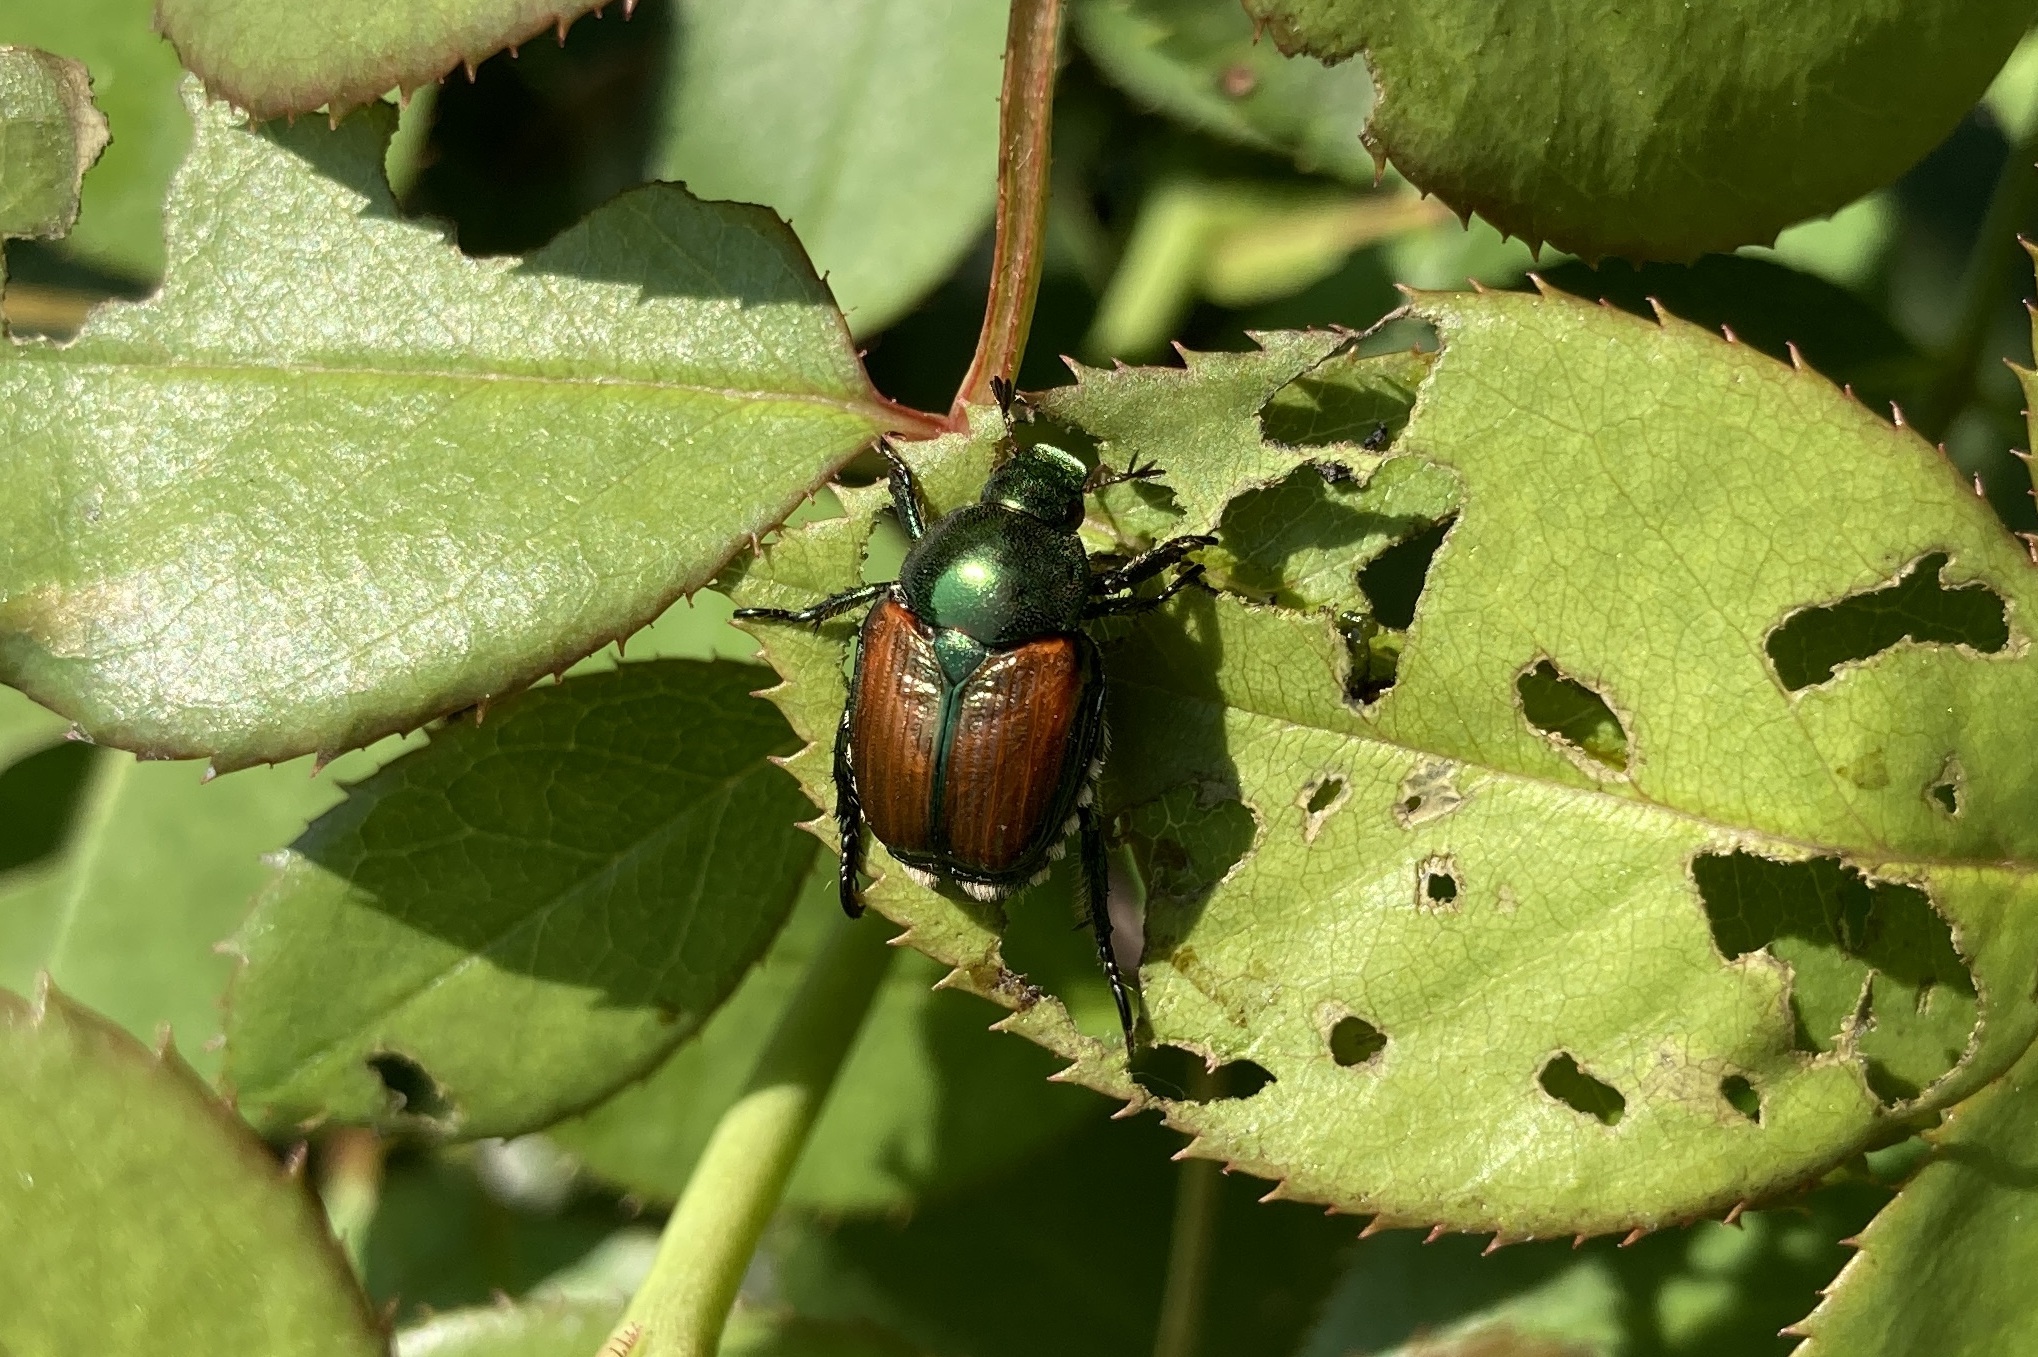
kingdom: Animalia
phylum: Arthropoda
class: Insecta
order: Coleoptera
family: Scarabaeidae
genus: Popillia
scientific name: Popillia japonica
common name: Japanese beetle
